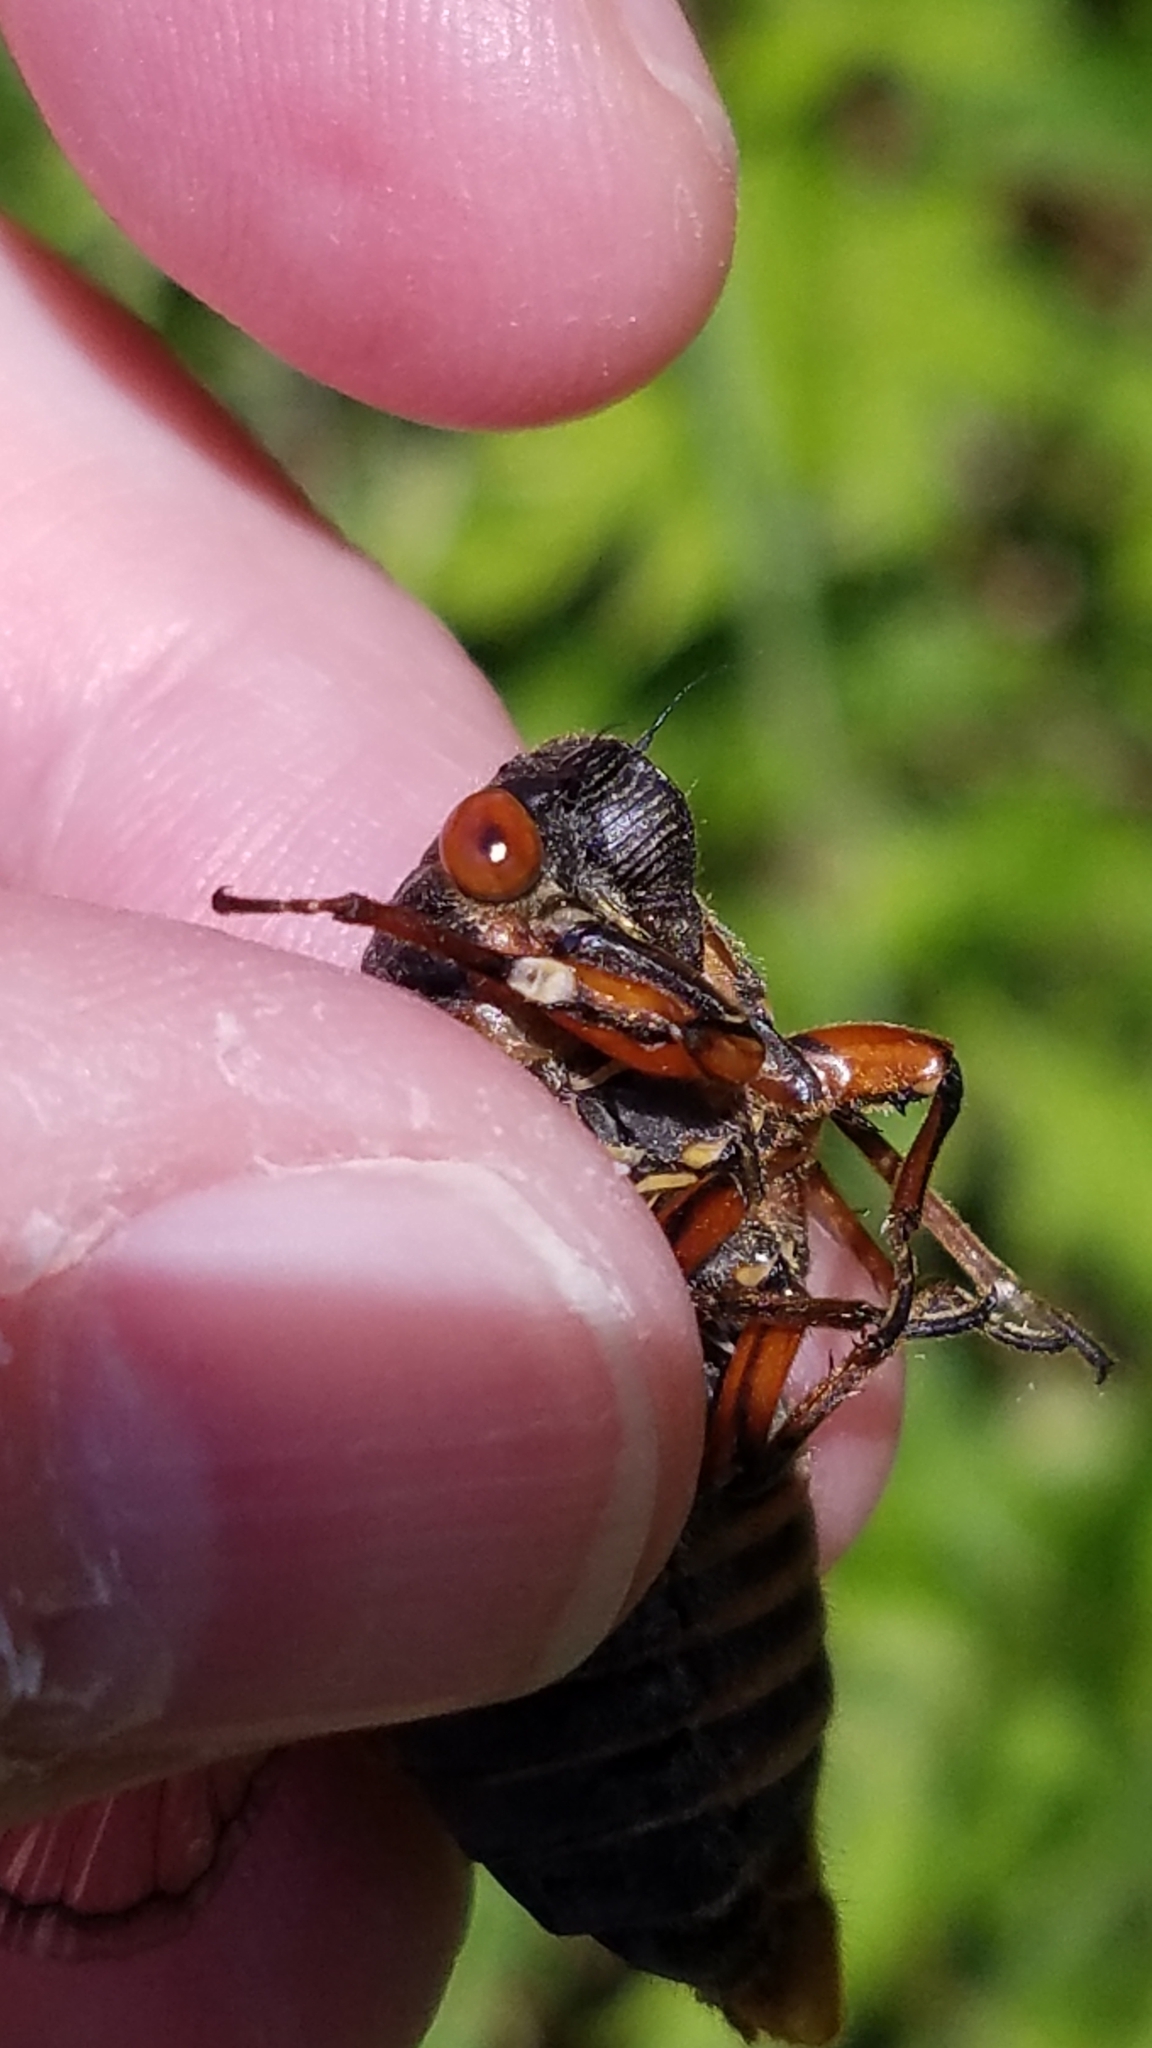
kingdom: Animalia
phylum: Arthropoda
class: Insecta
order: Hemiptera
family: Cicadidae
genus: Magicicada
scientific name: Magicicada septendecim
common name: Periodical cicada
